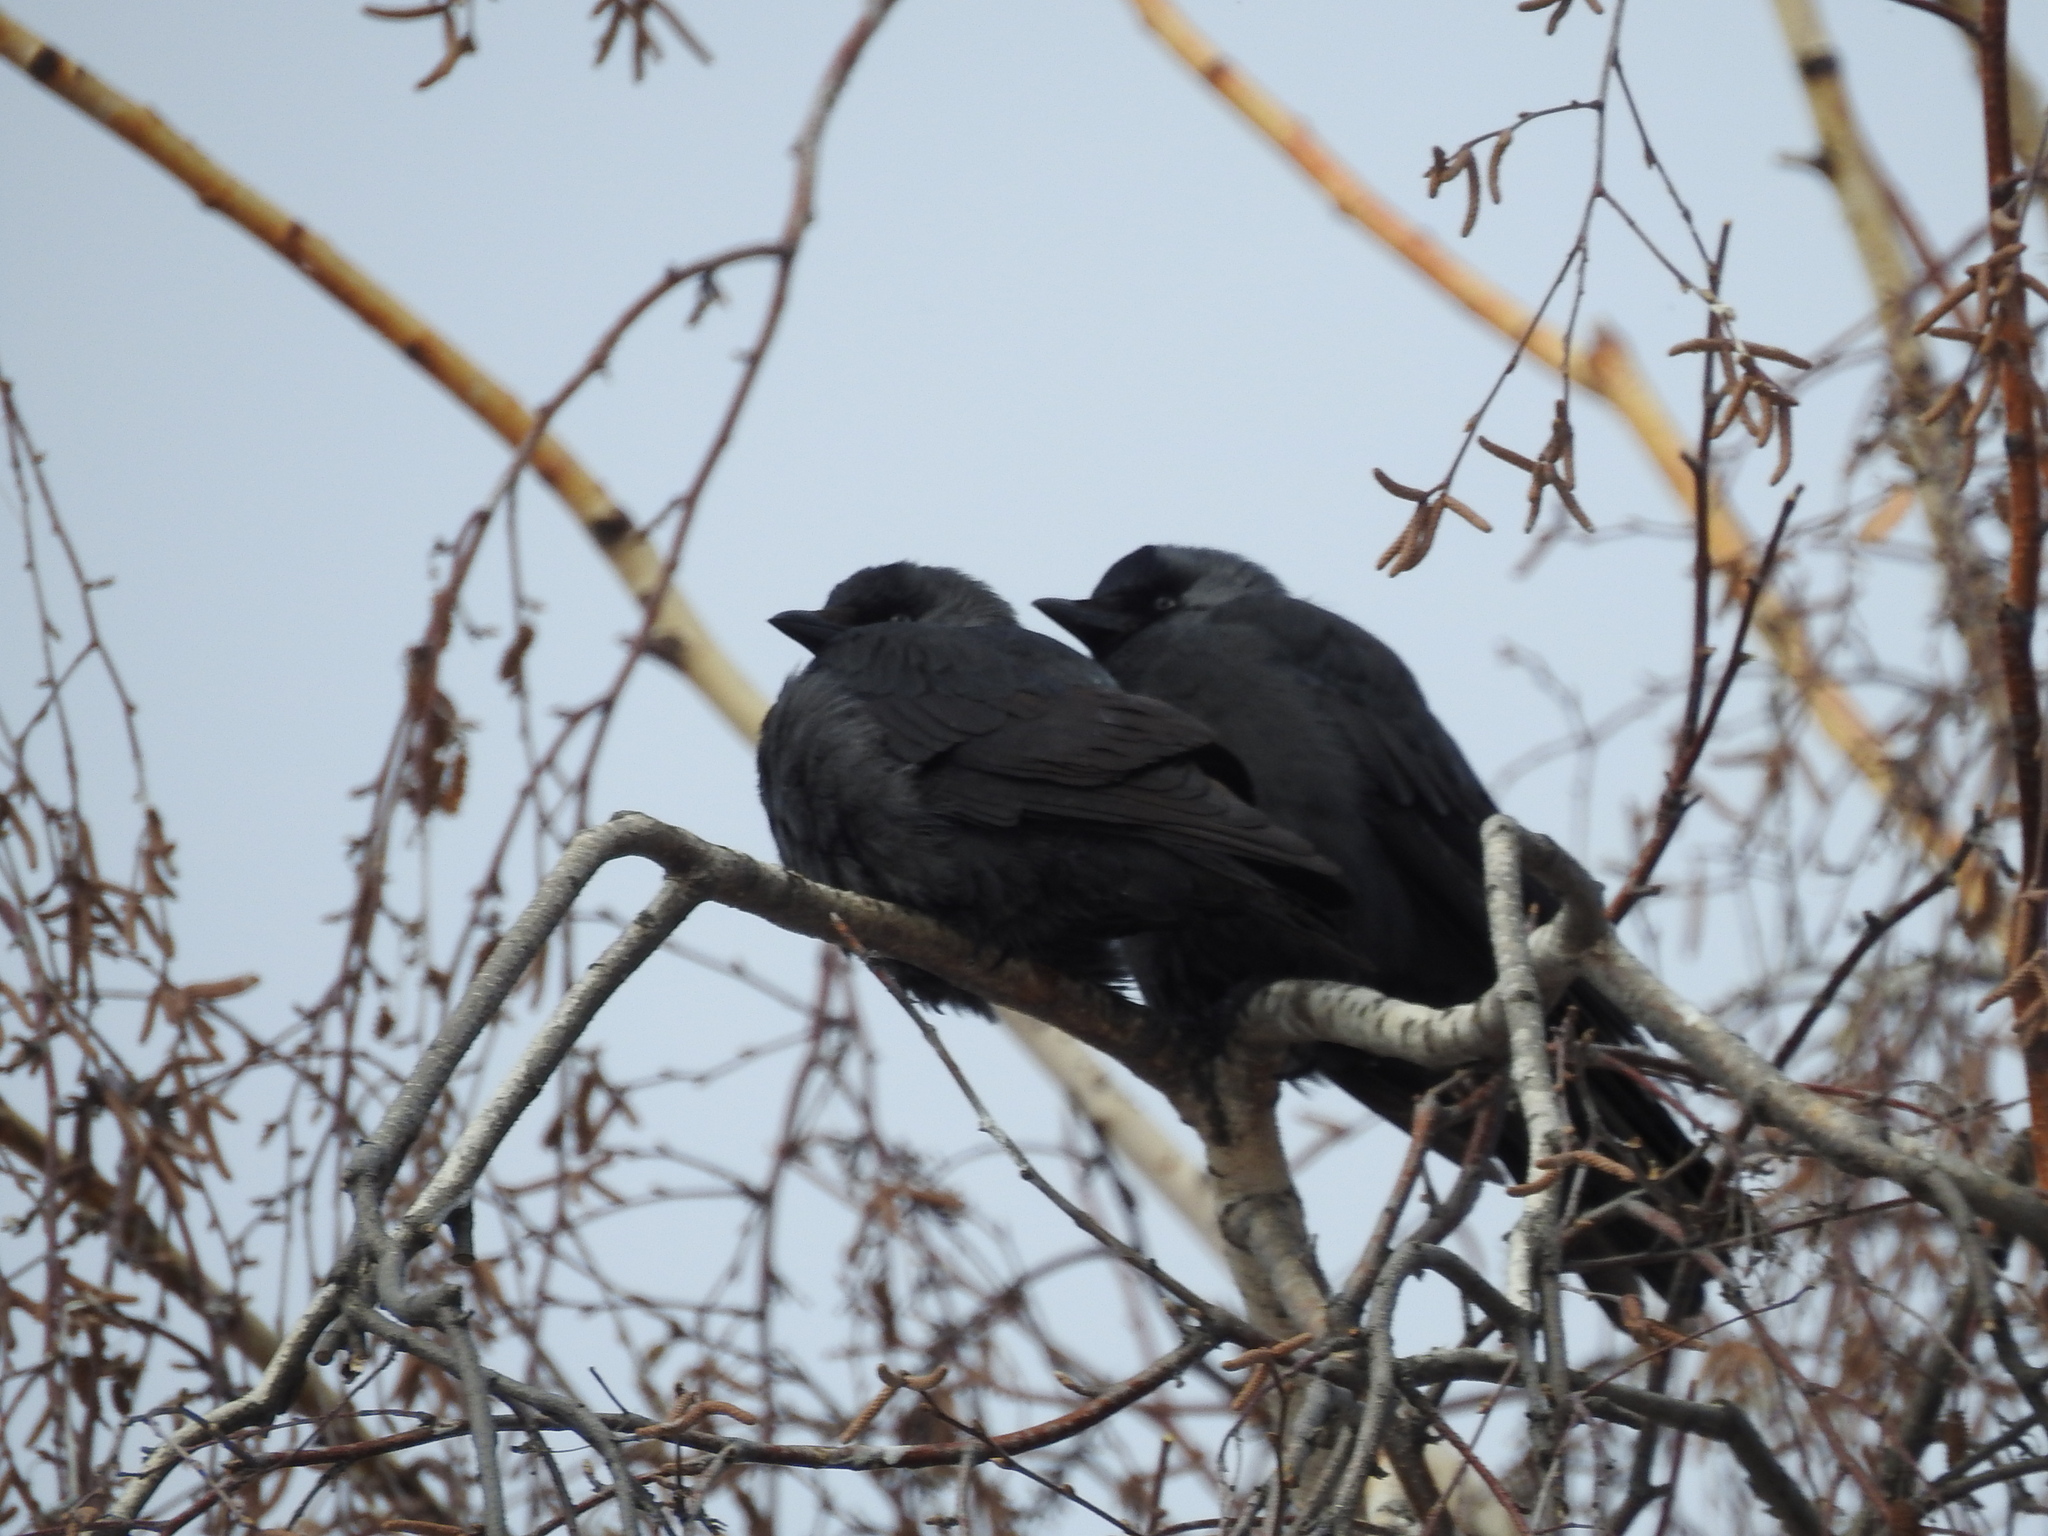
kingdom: Animalia
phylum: Chordata
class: Aves
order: Passeriformes
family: Corvidae
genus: Coloeus
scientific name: Coloeus monedula
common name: Western jackdaw
